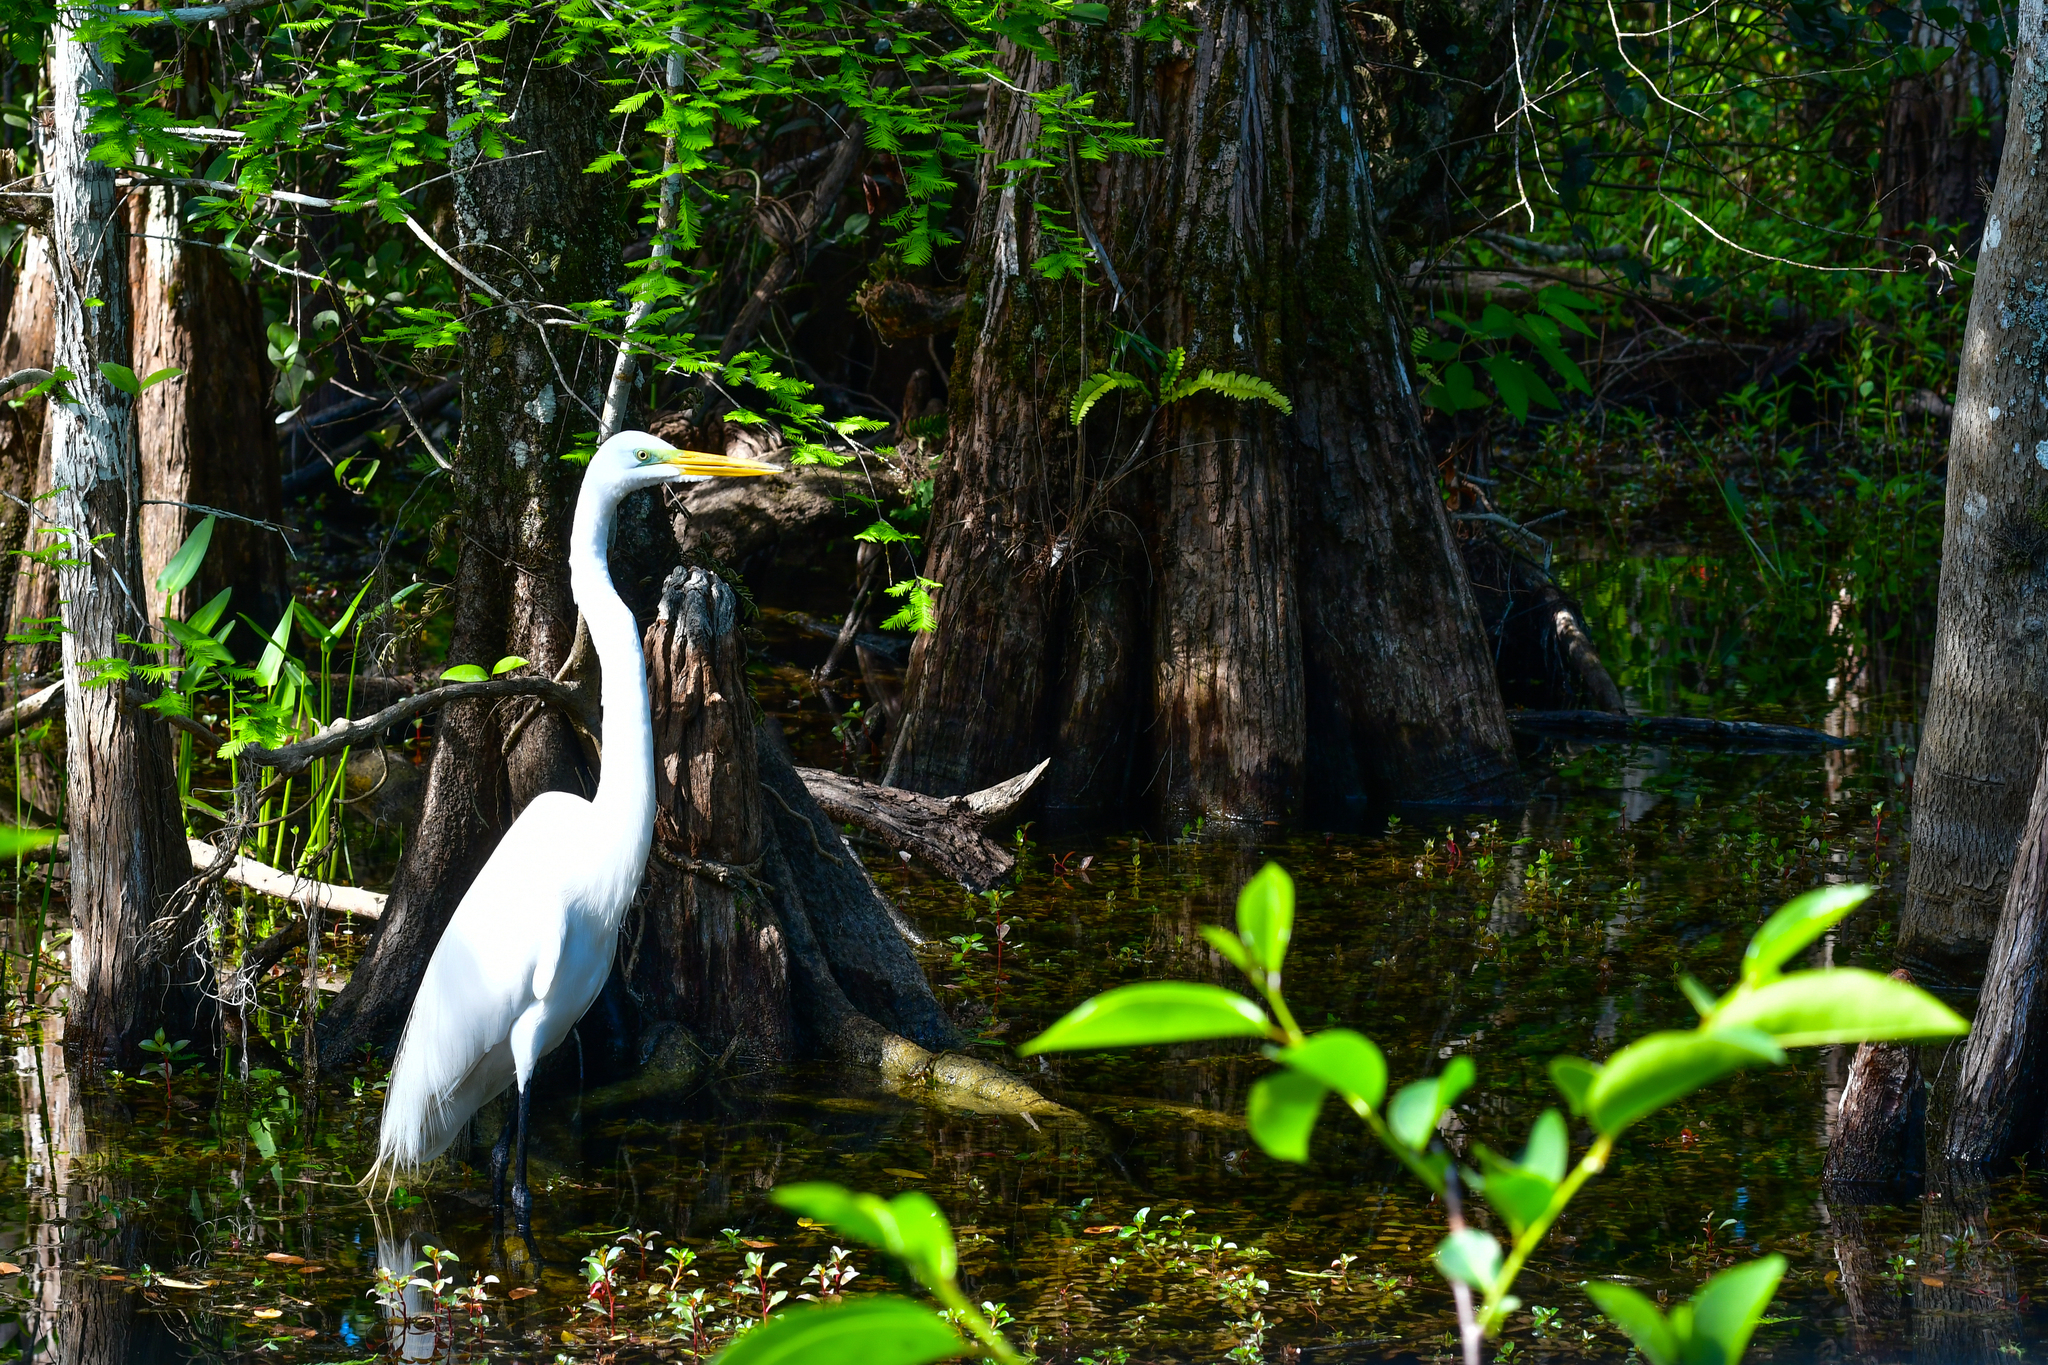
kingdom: Animalia
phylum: Chordata
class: Aves
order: Pelecaniformes
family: Ardeidae
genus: Ardea
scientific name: Ardea alba
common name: Great egret
